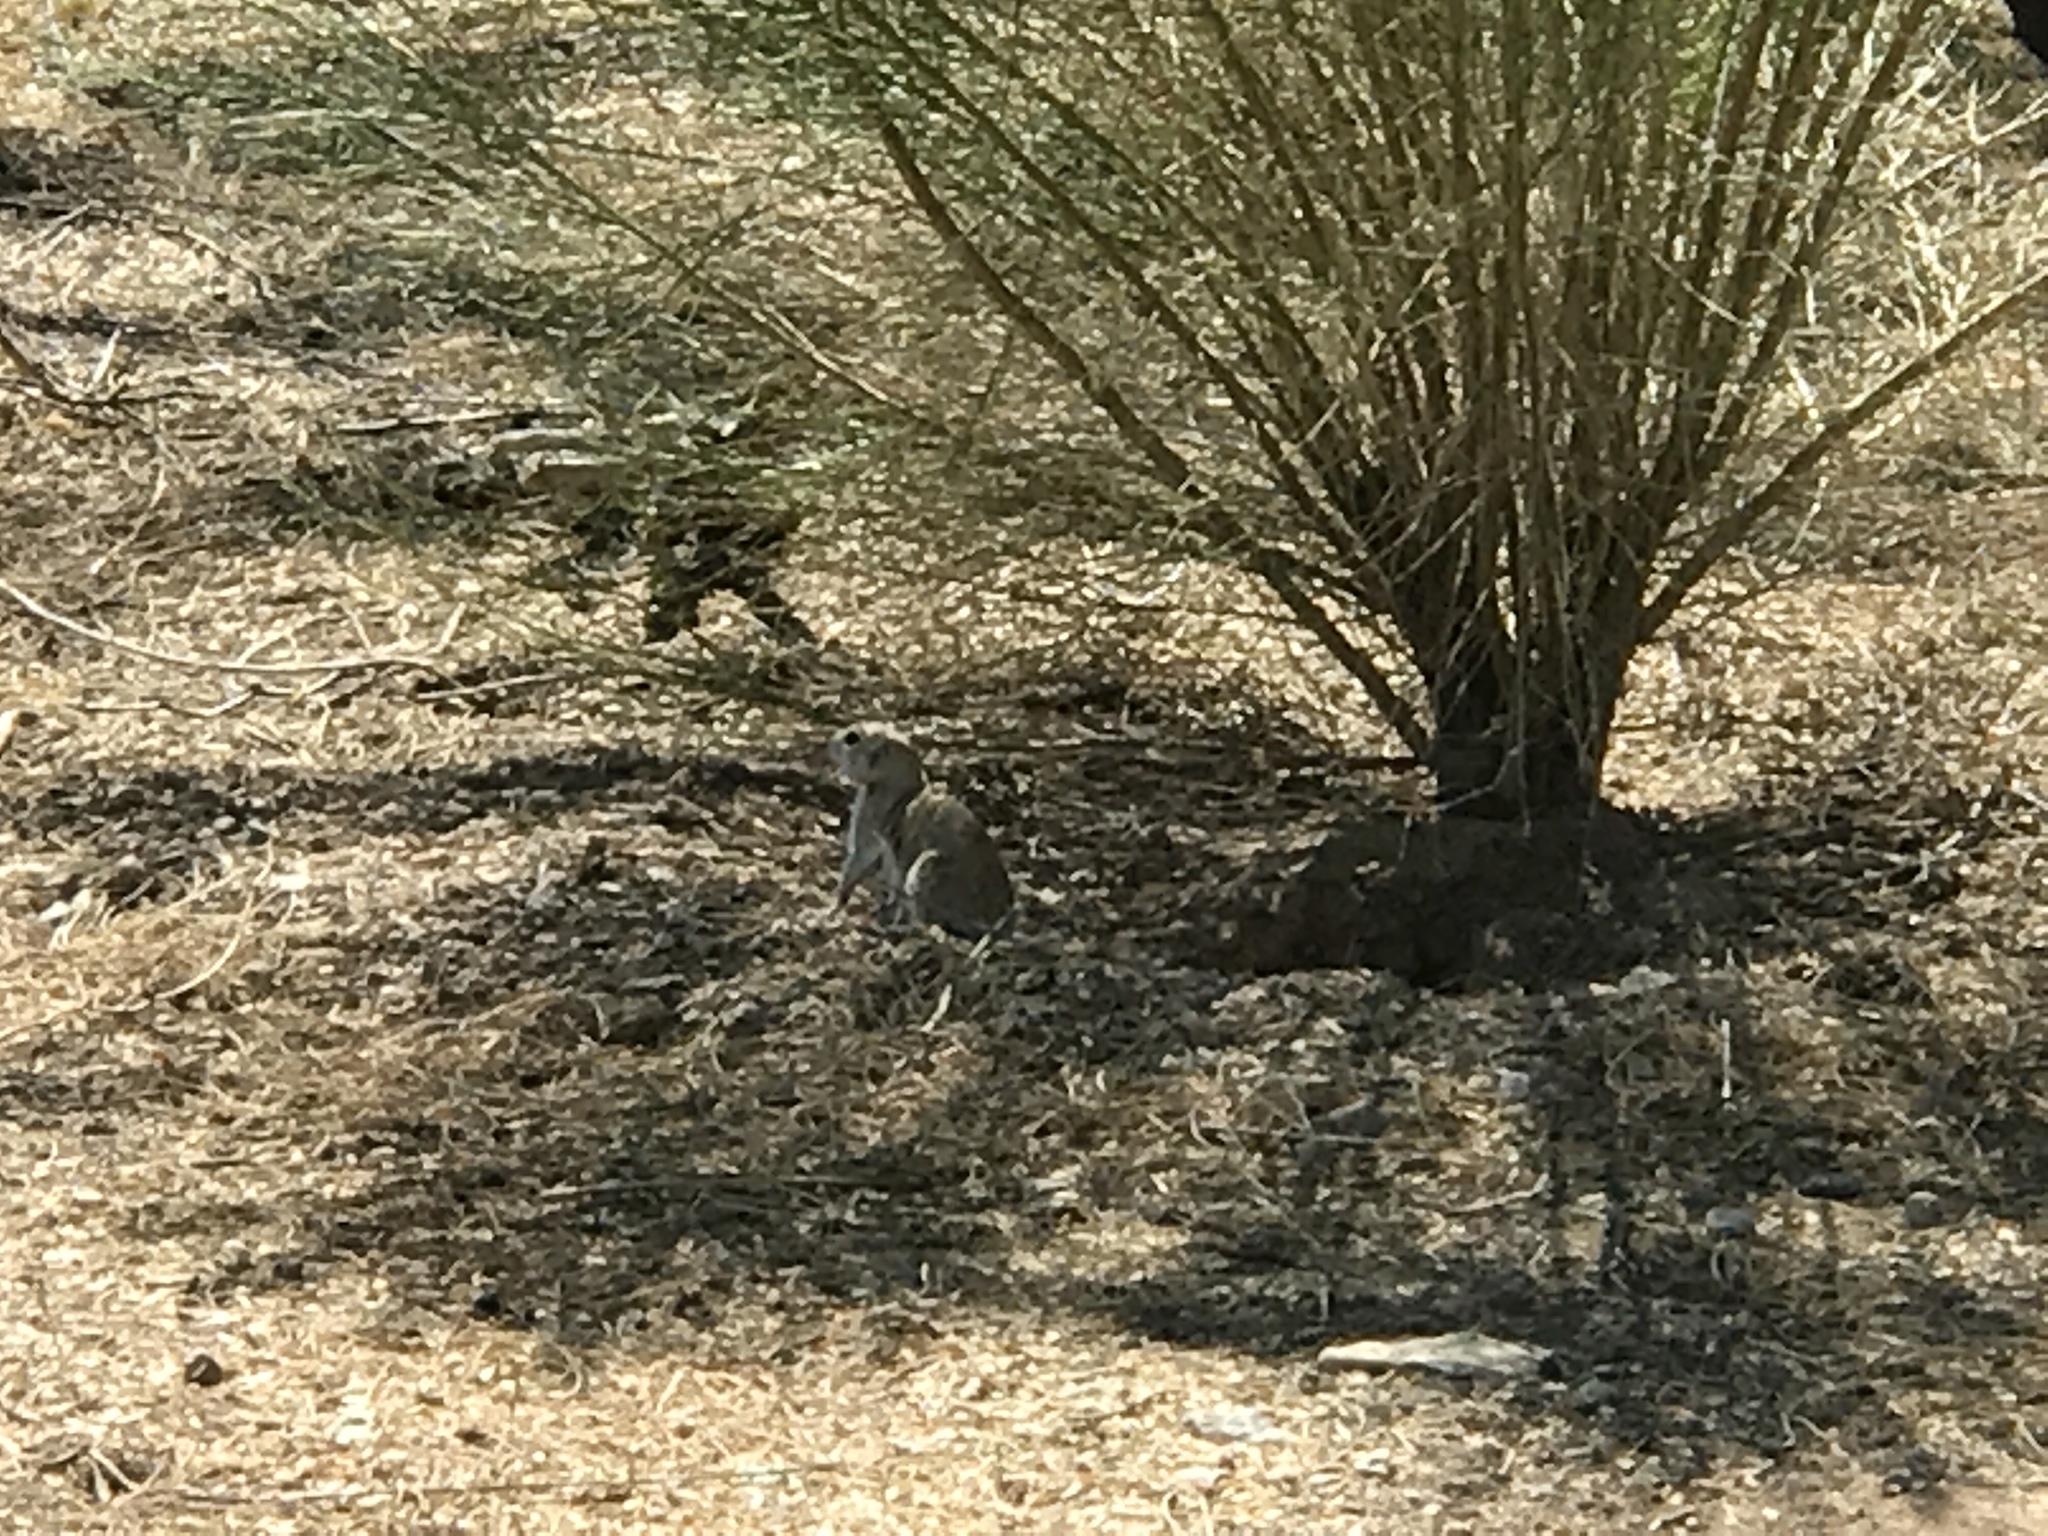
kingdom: Animalia
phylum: Chordata
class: Mammalia
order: Rodentia
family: Sciuridae
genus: Xerospermophilus
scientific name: Xerospermophilus tereticaudus
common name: Round-tailed ground squirrel
